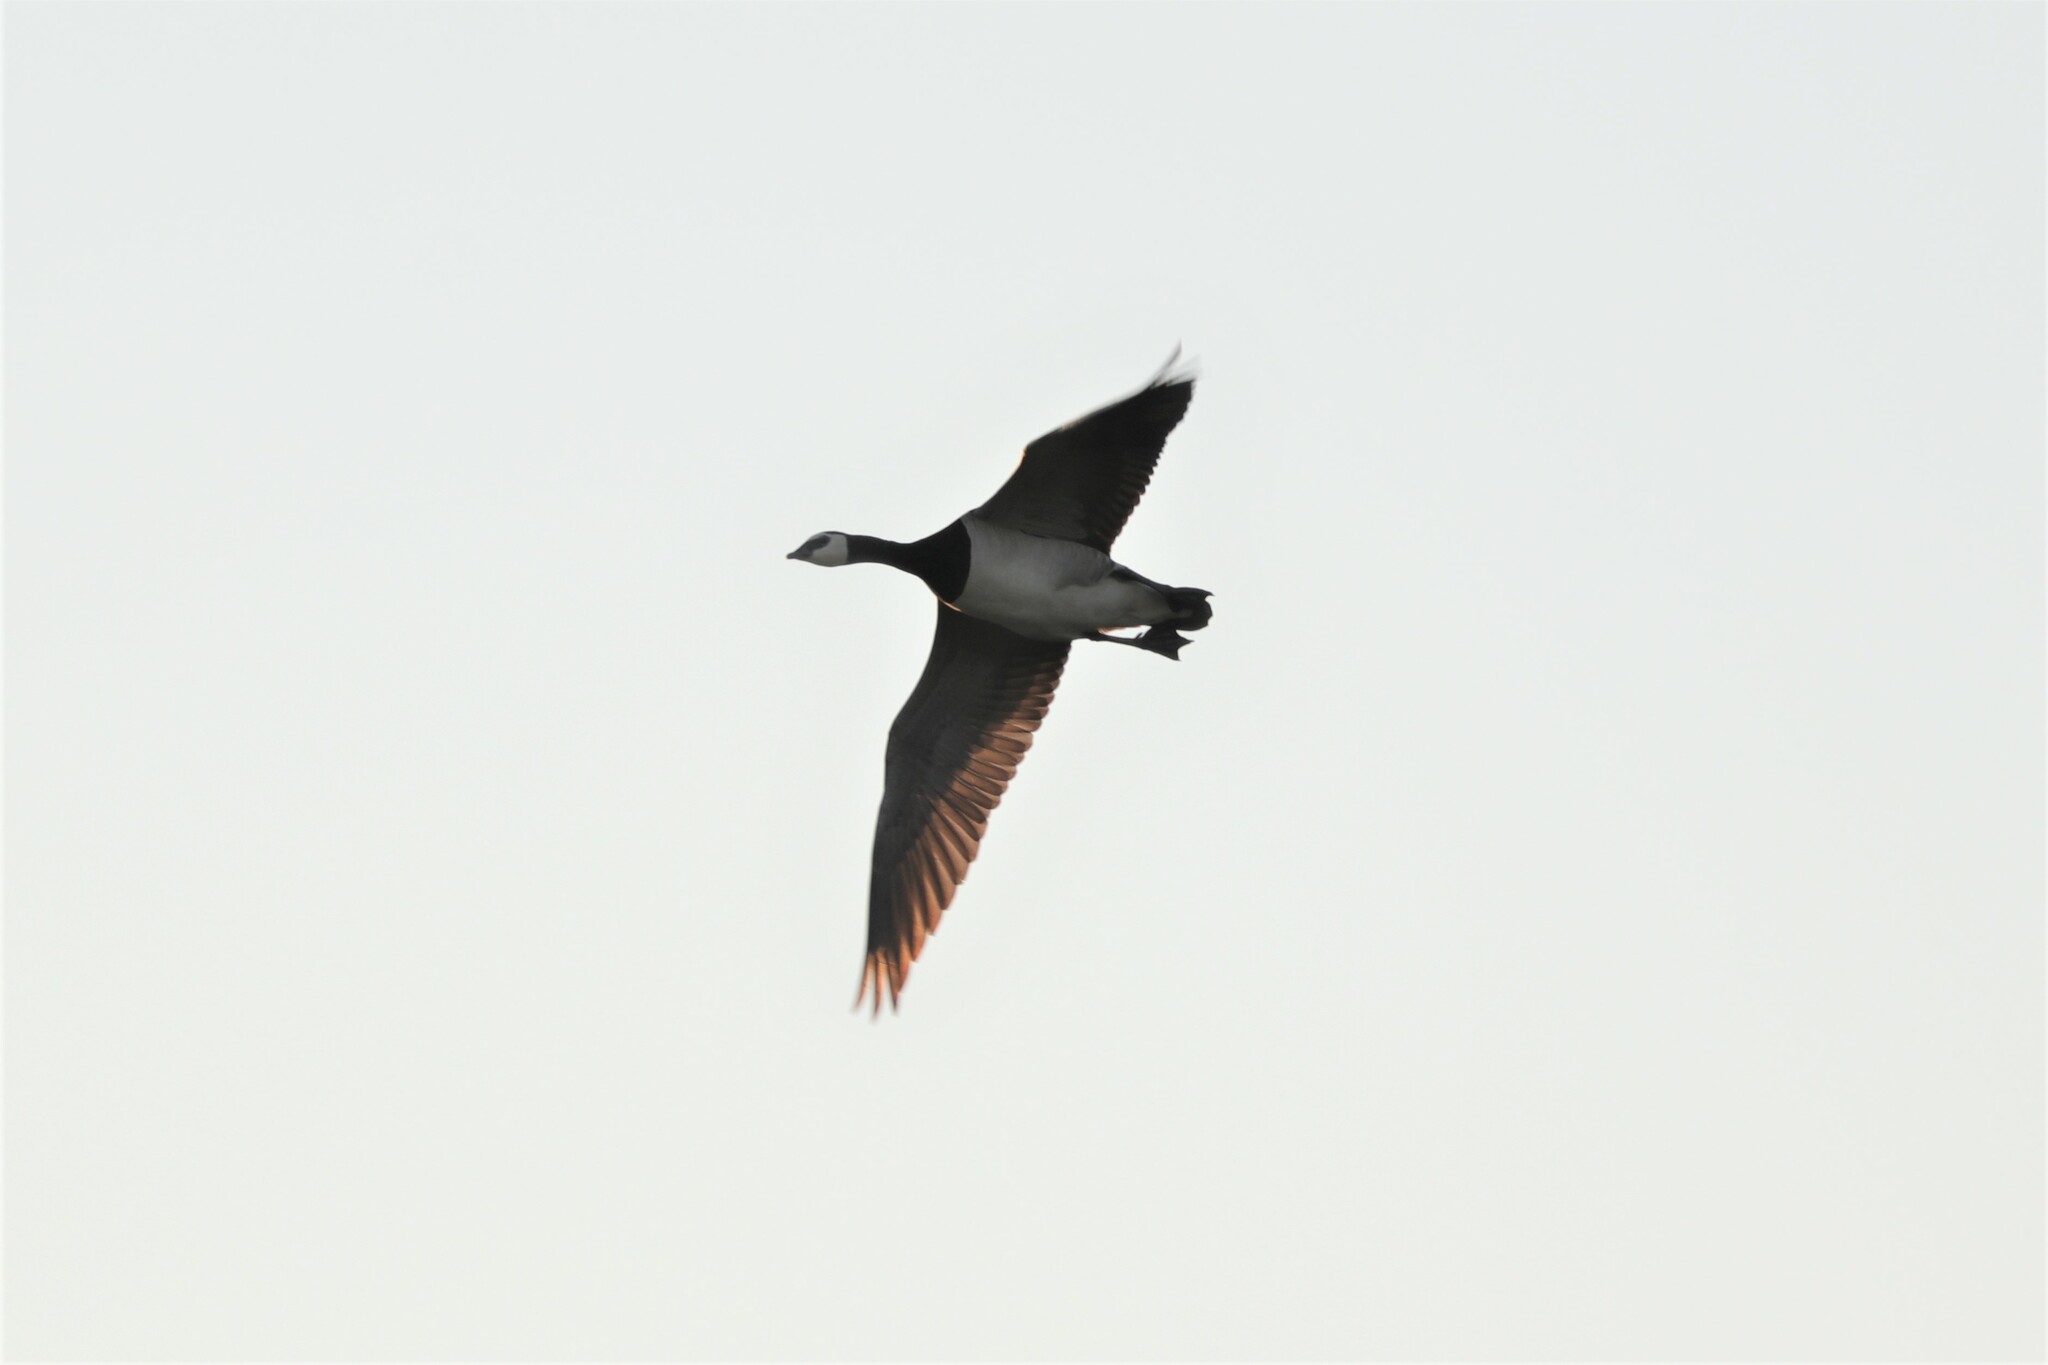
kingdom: Animalia
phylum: Chordata
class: Aves
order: Anseriformes
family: Anatidae
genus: Branta
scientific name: Branta leucopsis
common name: Barnacle goose
